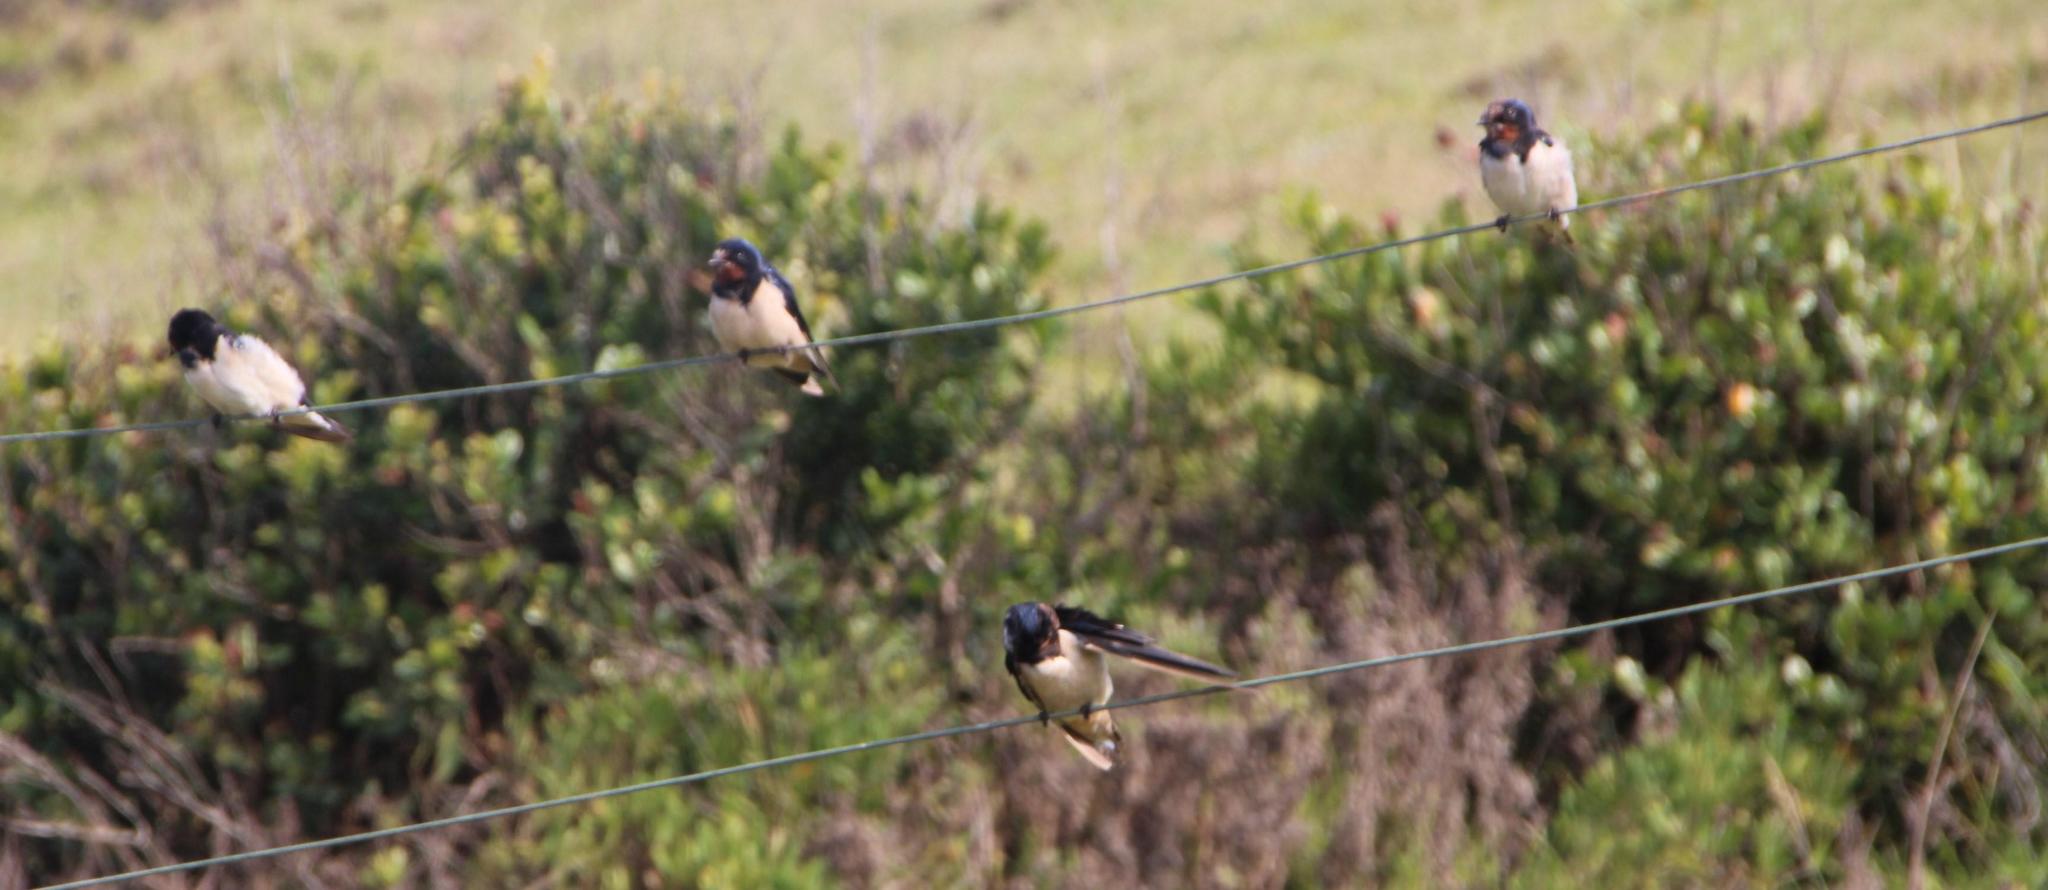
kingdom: Animalia
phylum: Chordata
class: Aves
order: Passeriformes
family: Hirundinidae
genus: Hirundo
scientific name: Hirundo rustica
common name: Barn swallow
